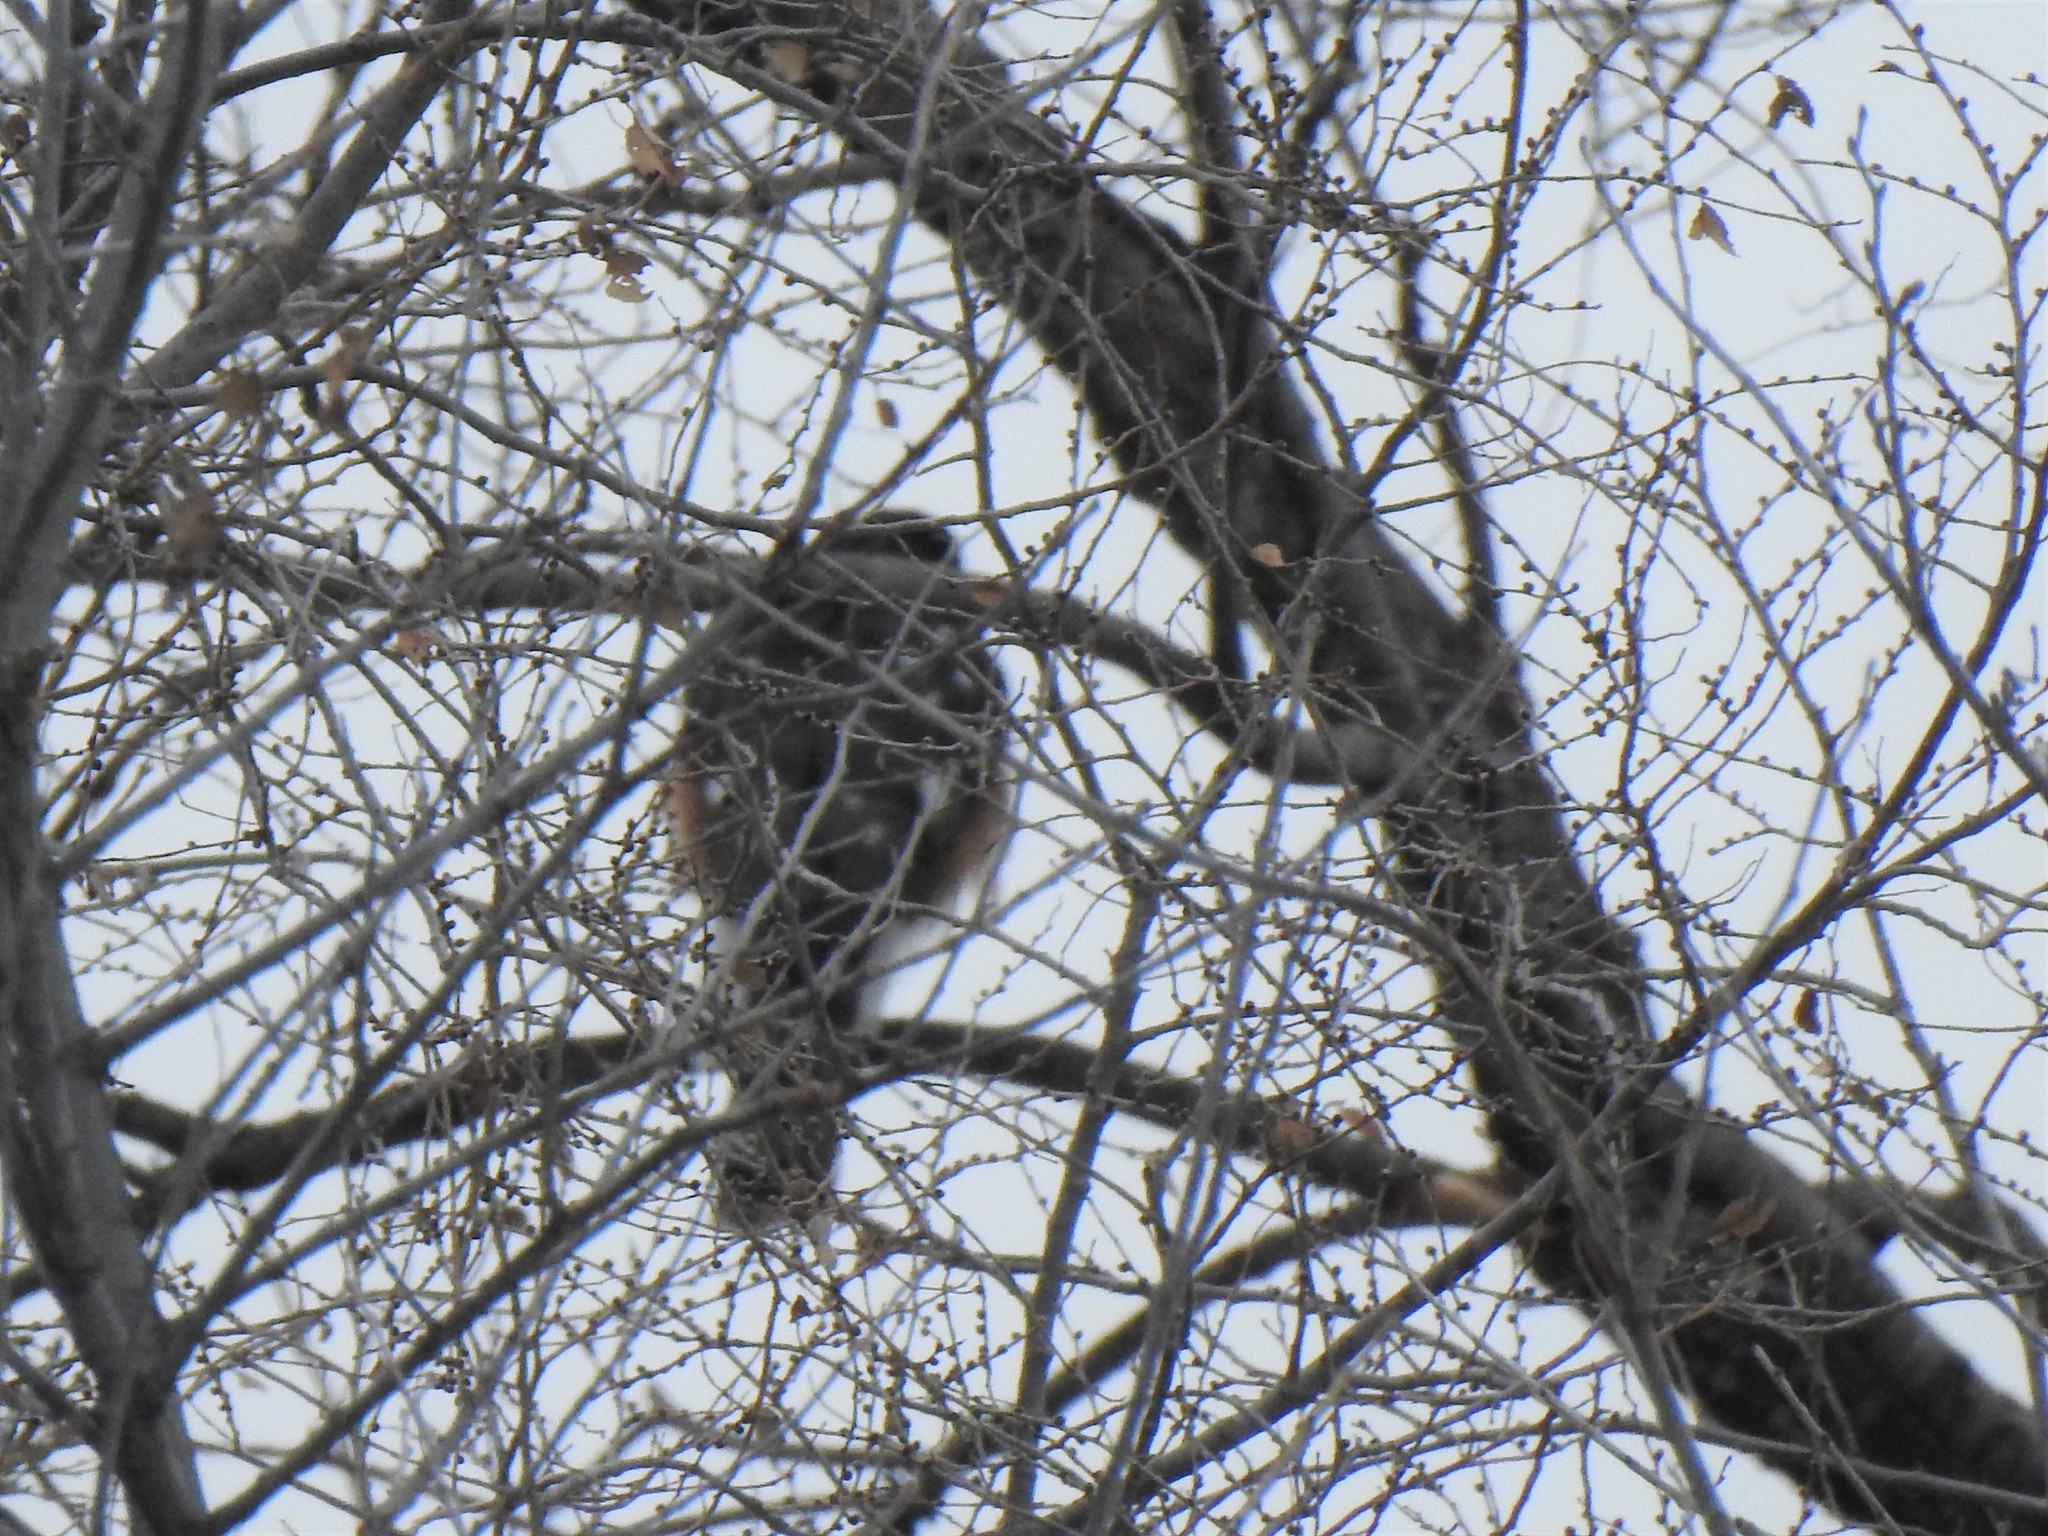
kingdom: Animalia
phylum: Chordata
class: Aves
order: Accipitriformes
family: Accipitridae
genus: Accipiter
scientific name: Accipiter striatus
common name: Sharp-shinned hawk
